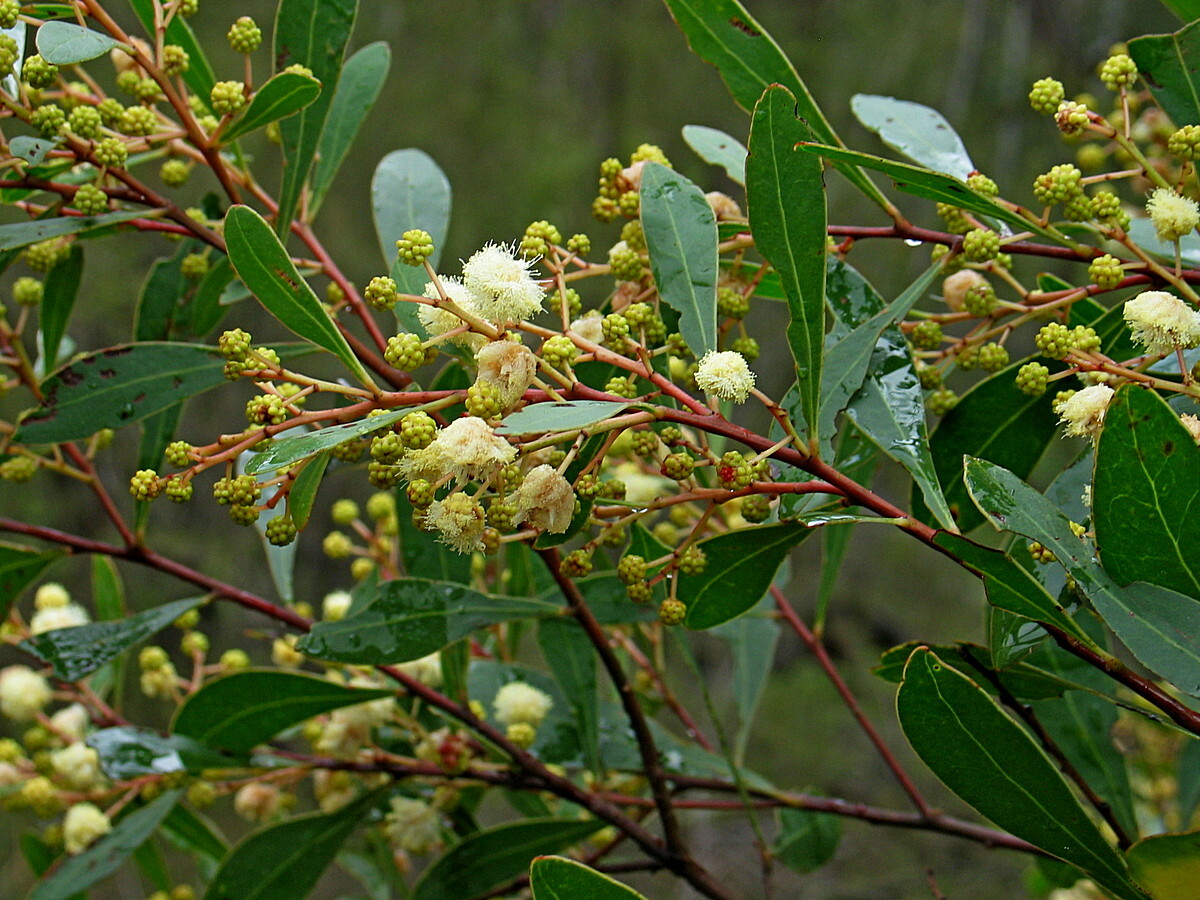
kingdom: Plantae
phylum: Tracheophyta
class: Magnoliopsida
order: Fabales
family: Fabaceae
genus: Acacia
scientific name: Acacia penninervis
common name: Hickory wattle
